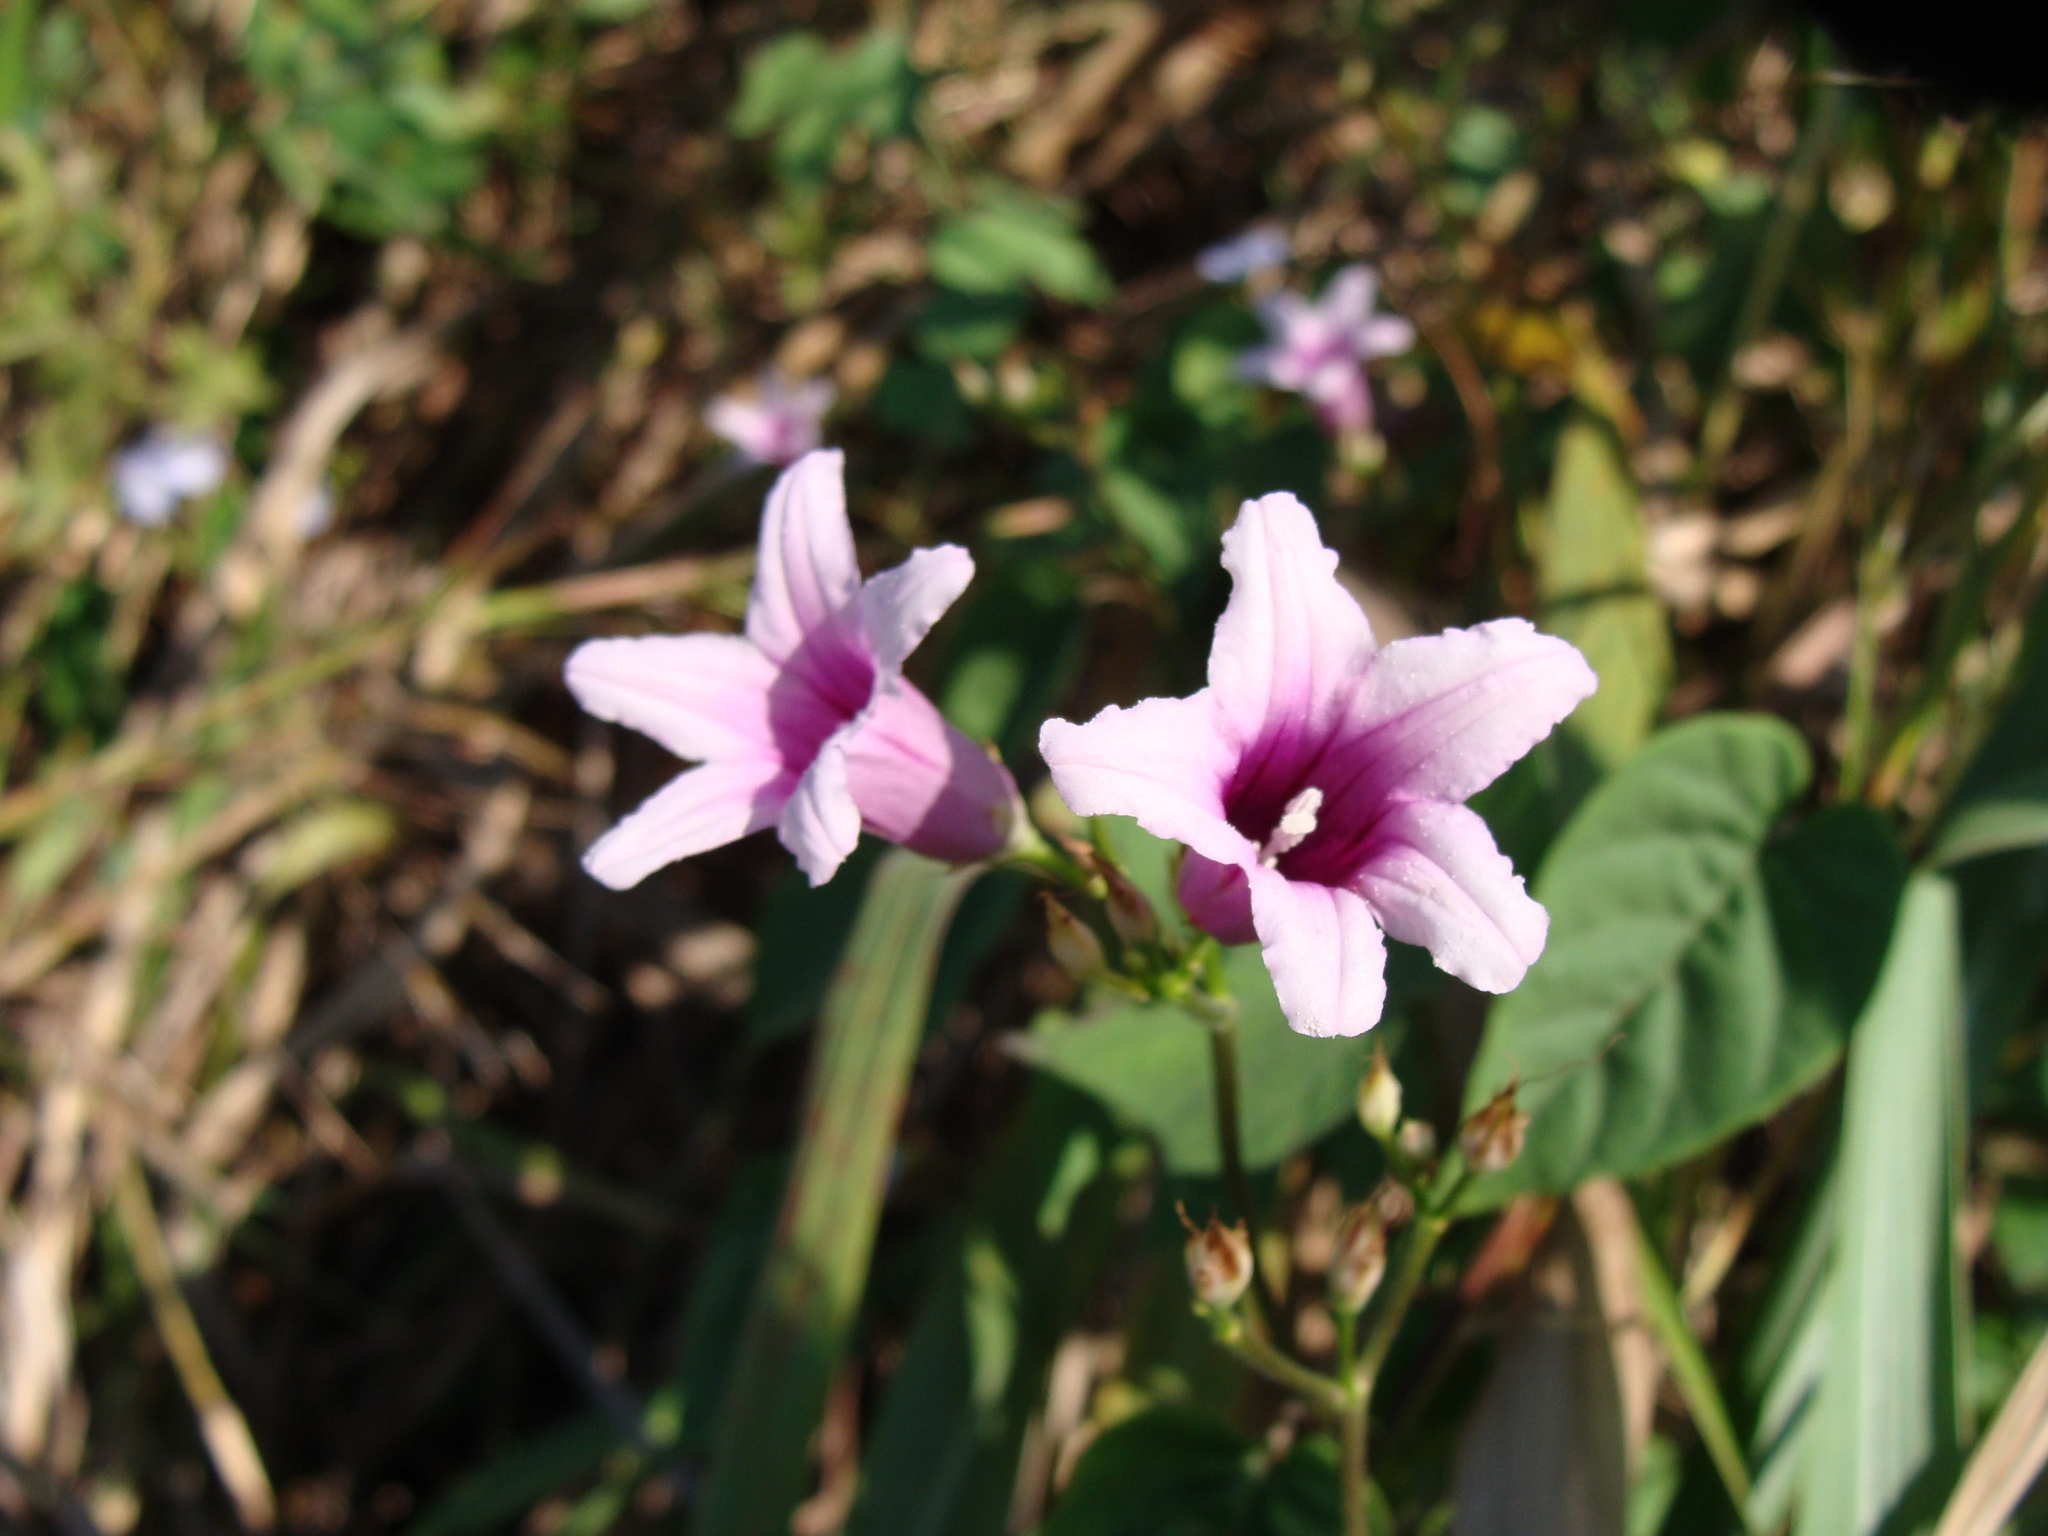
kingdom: Plantae
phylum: Tracheophyta
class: Magnoliopsida
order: Solanales
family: Convolvulaceae
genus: Ipomoea
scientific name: Ipomoea trifida
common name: Cotton morningglory
